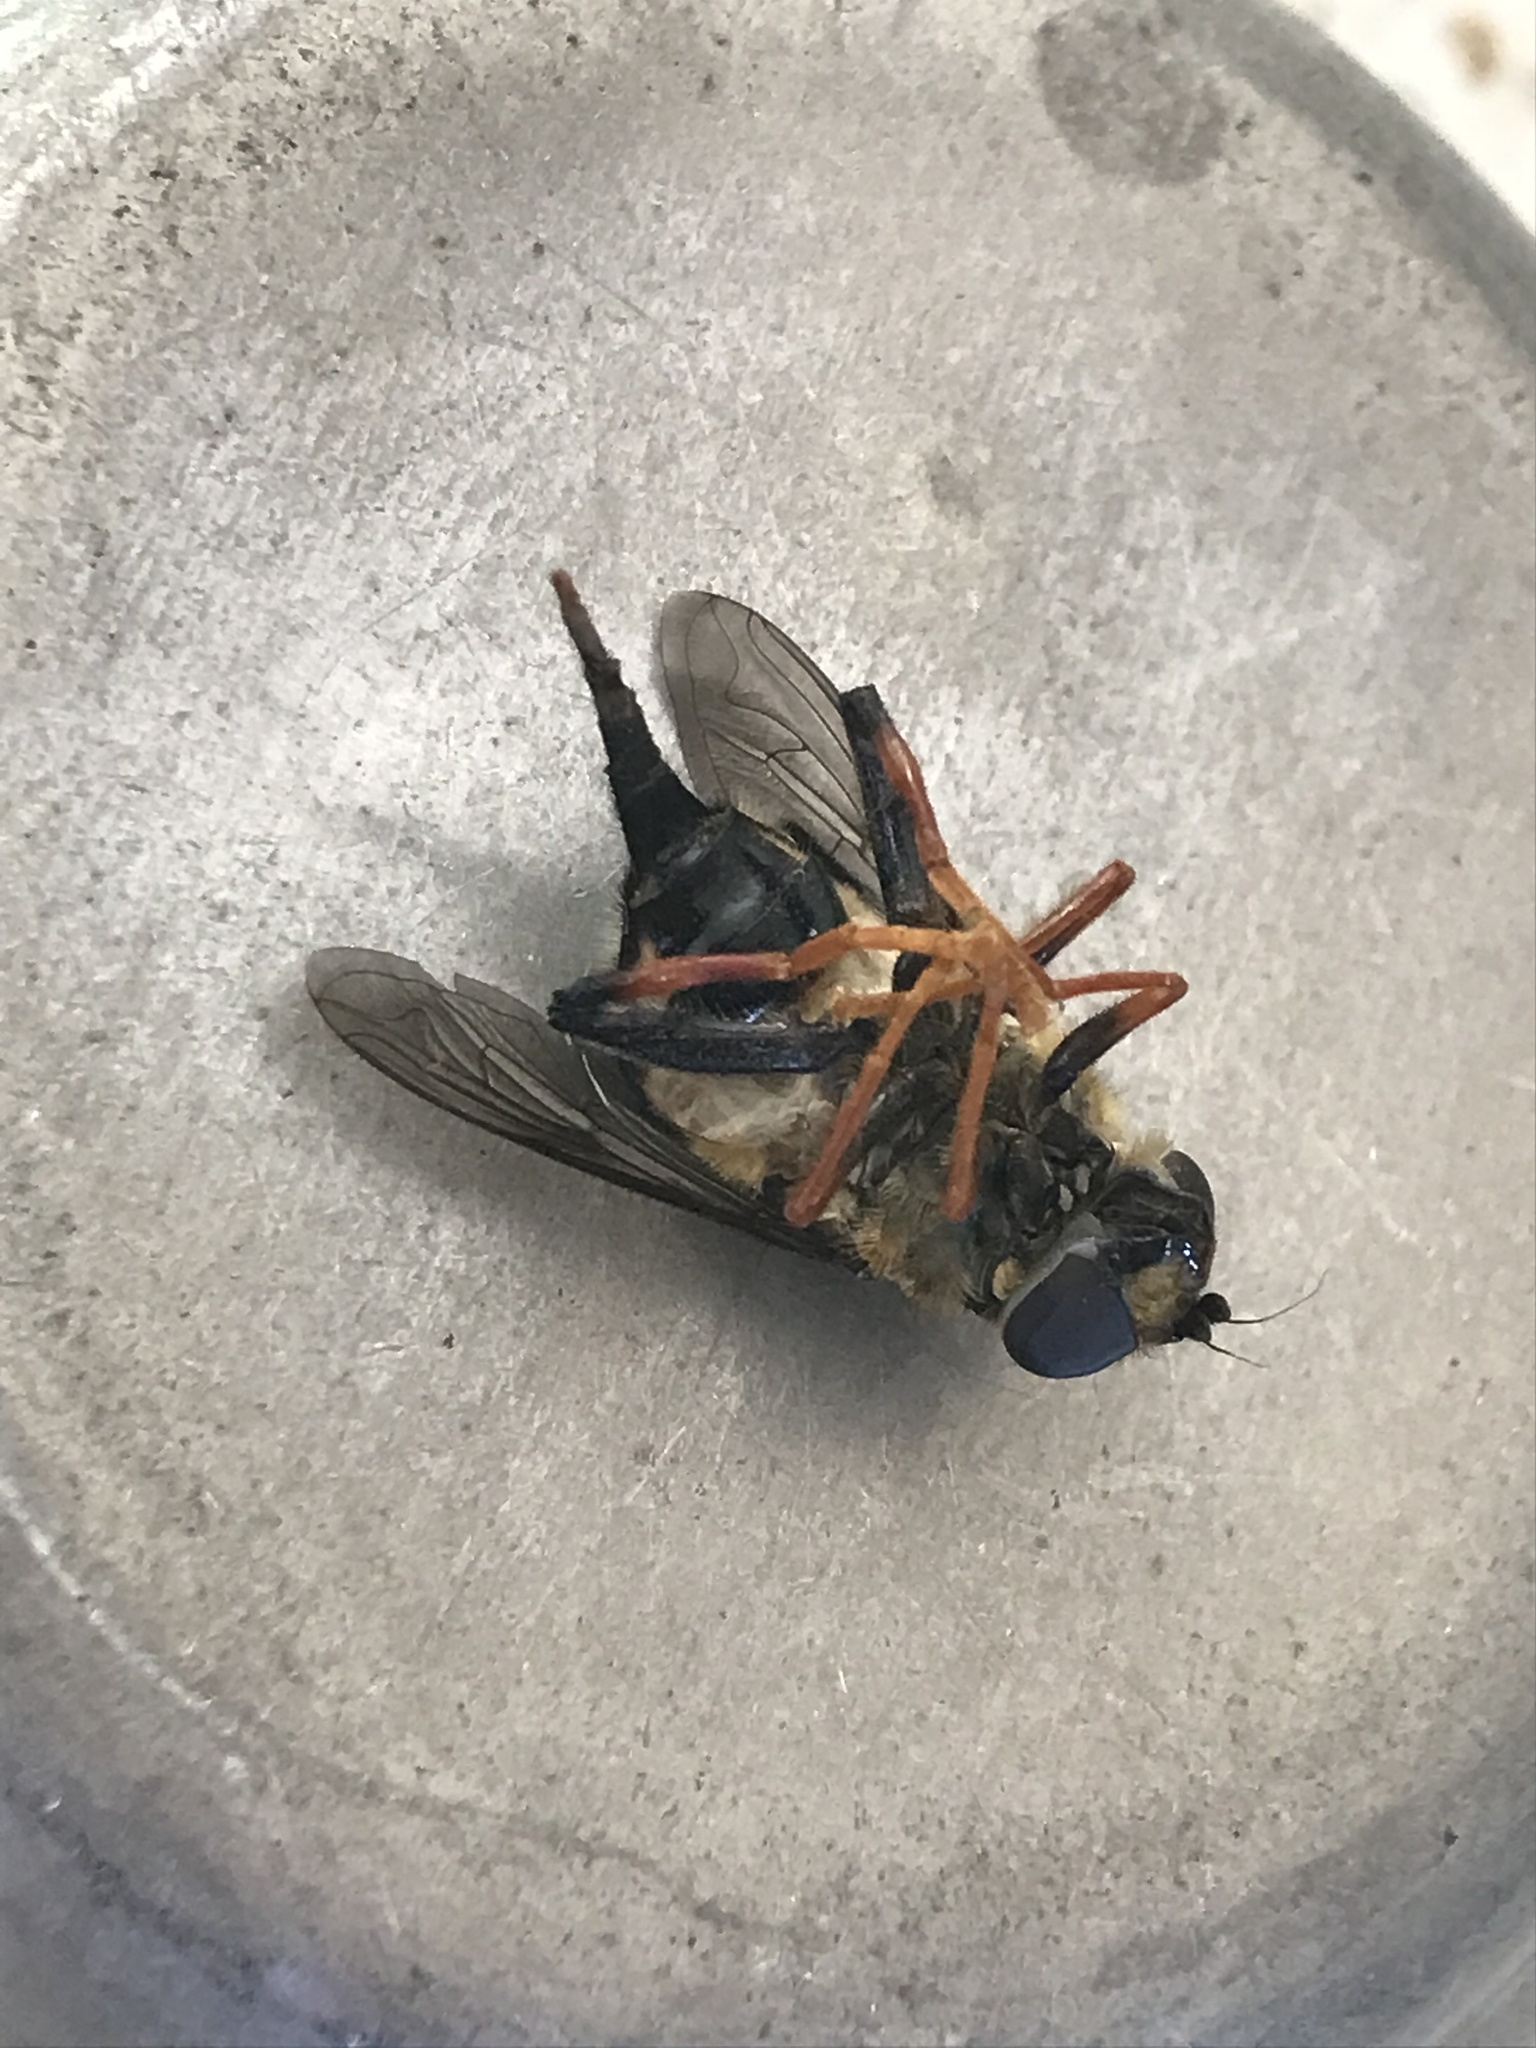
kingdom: Animalia
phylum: Arthropoda
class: Insecta
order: Diptera
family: Syrphidae
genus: Helophilus
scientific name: Helophilus seelandicus
